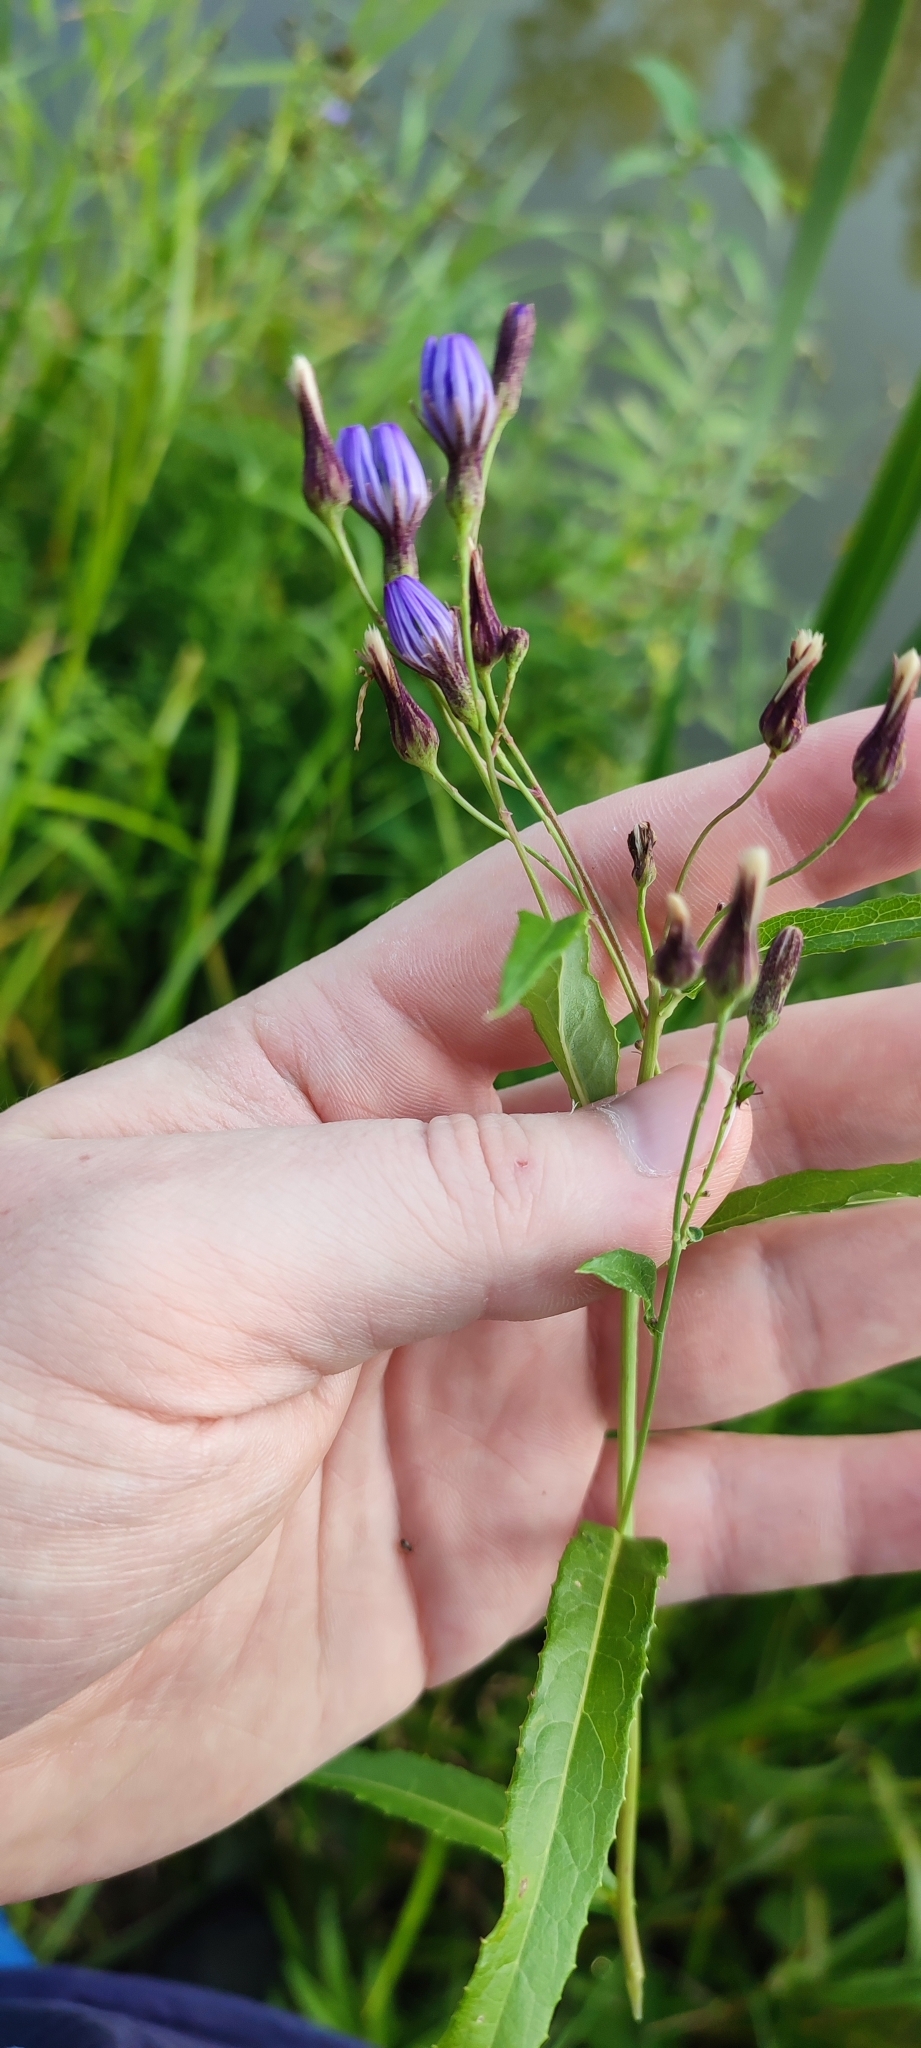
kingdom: Plantae
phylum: Tracheophyta
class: Magnoliopsida
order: Asterales
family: Asteraceae
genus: Lactuca
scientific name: Lactuca sibirica
